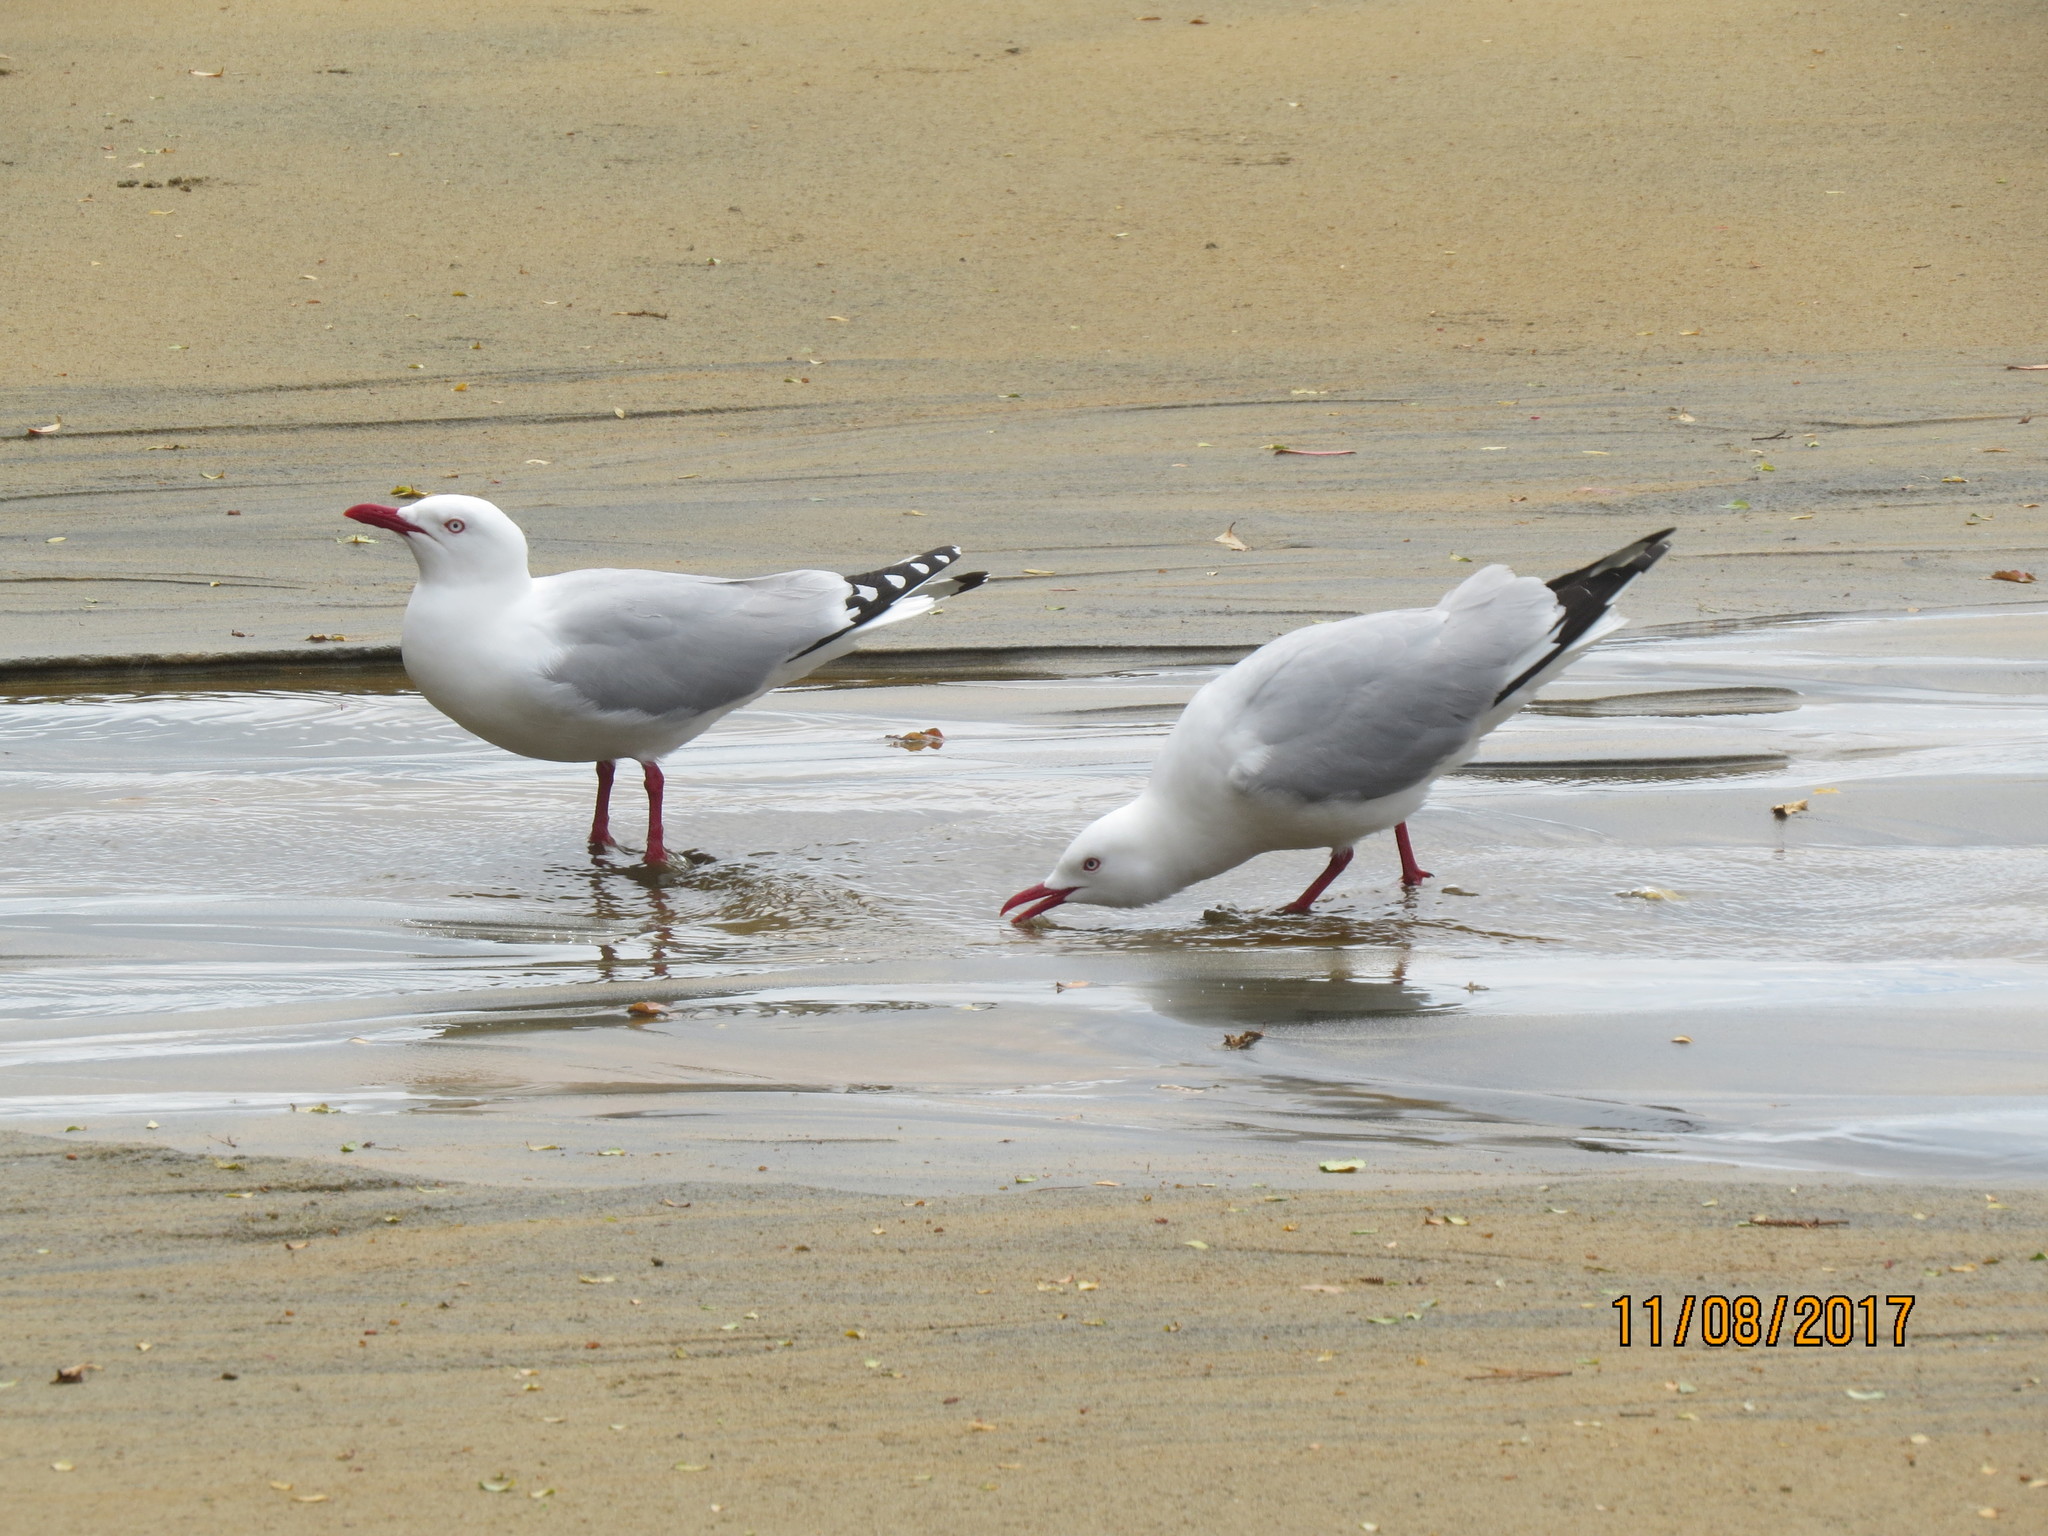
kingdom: Animalia
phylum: Chordata
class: Aves
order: Charadriiformes
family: Laridae
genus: Chroicocephalus
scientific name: Chroicocephalus novaehollandiae
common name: Silver gull
